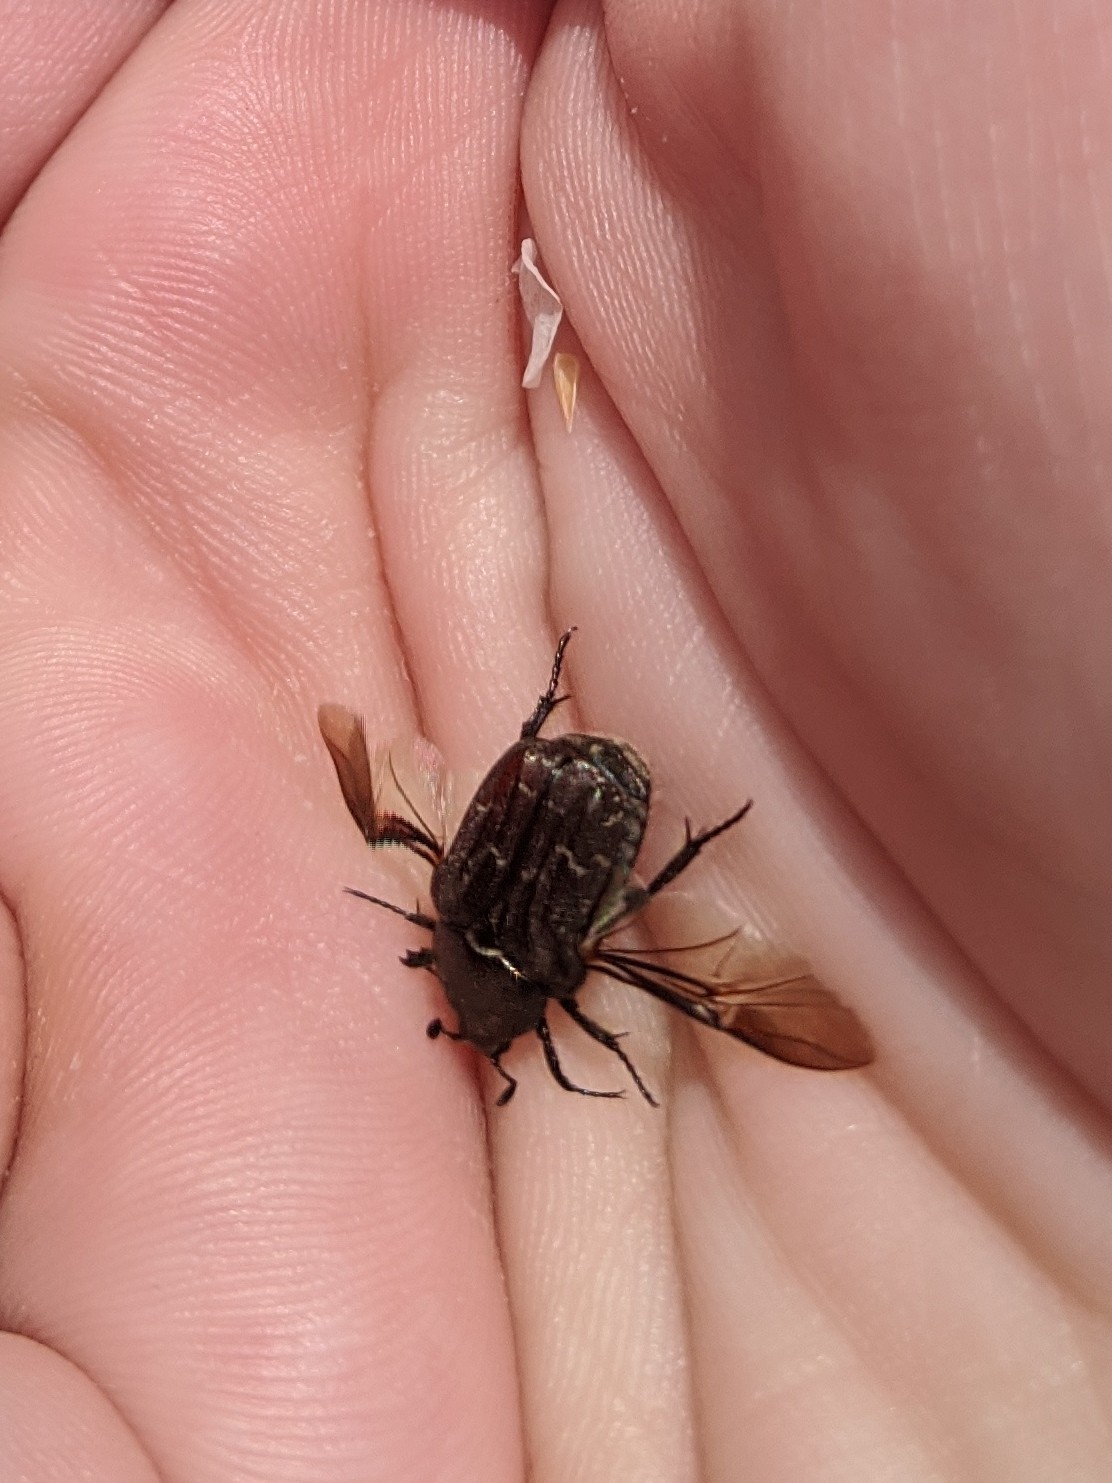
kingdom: Animalia
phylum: Arthropoda
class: Insecta
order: Coleoptera
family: Scarabaeidae
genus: Euphoria
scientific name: Euphoria sepulcralis
